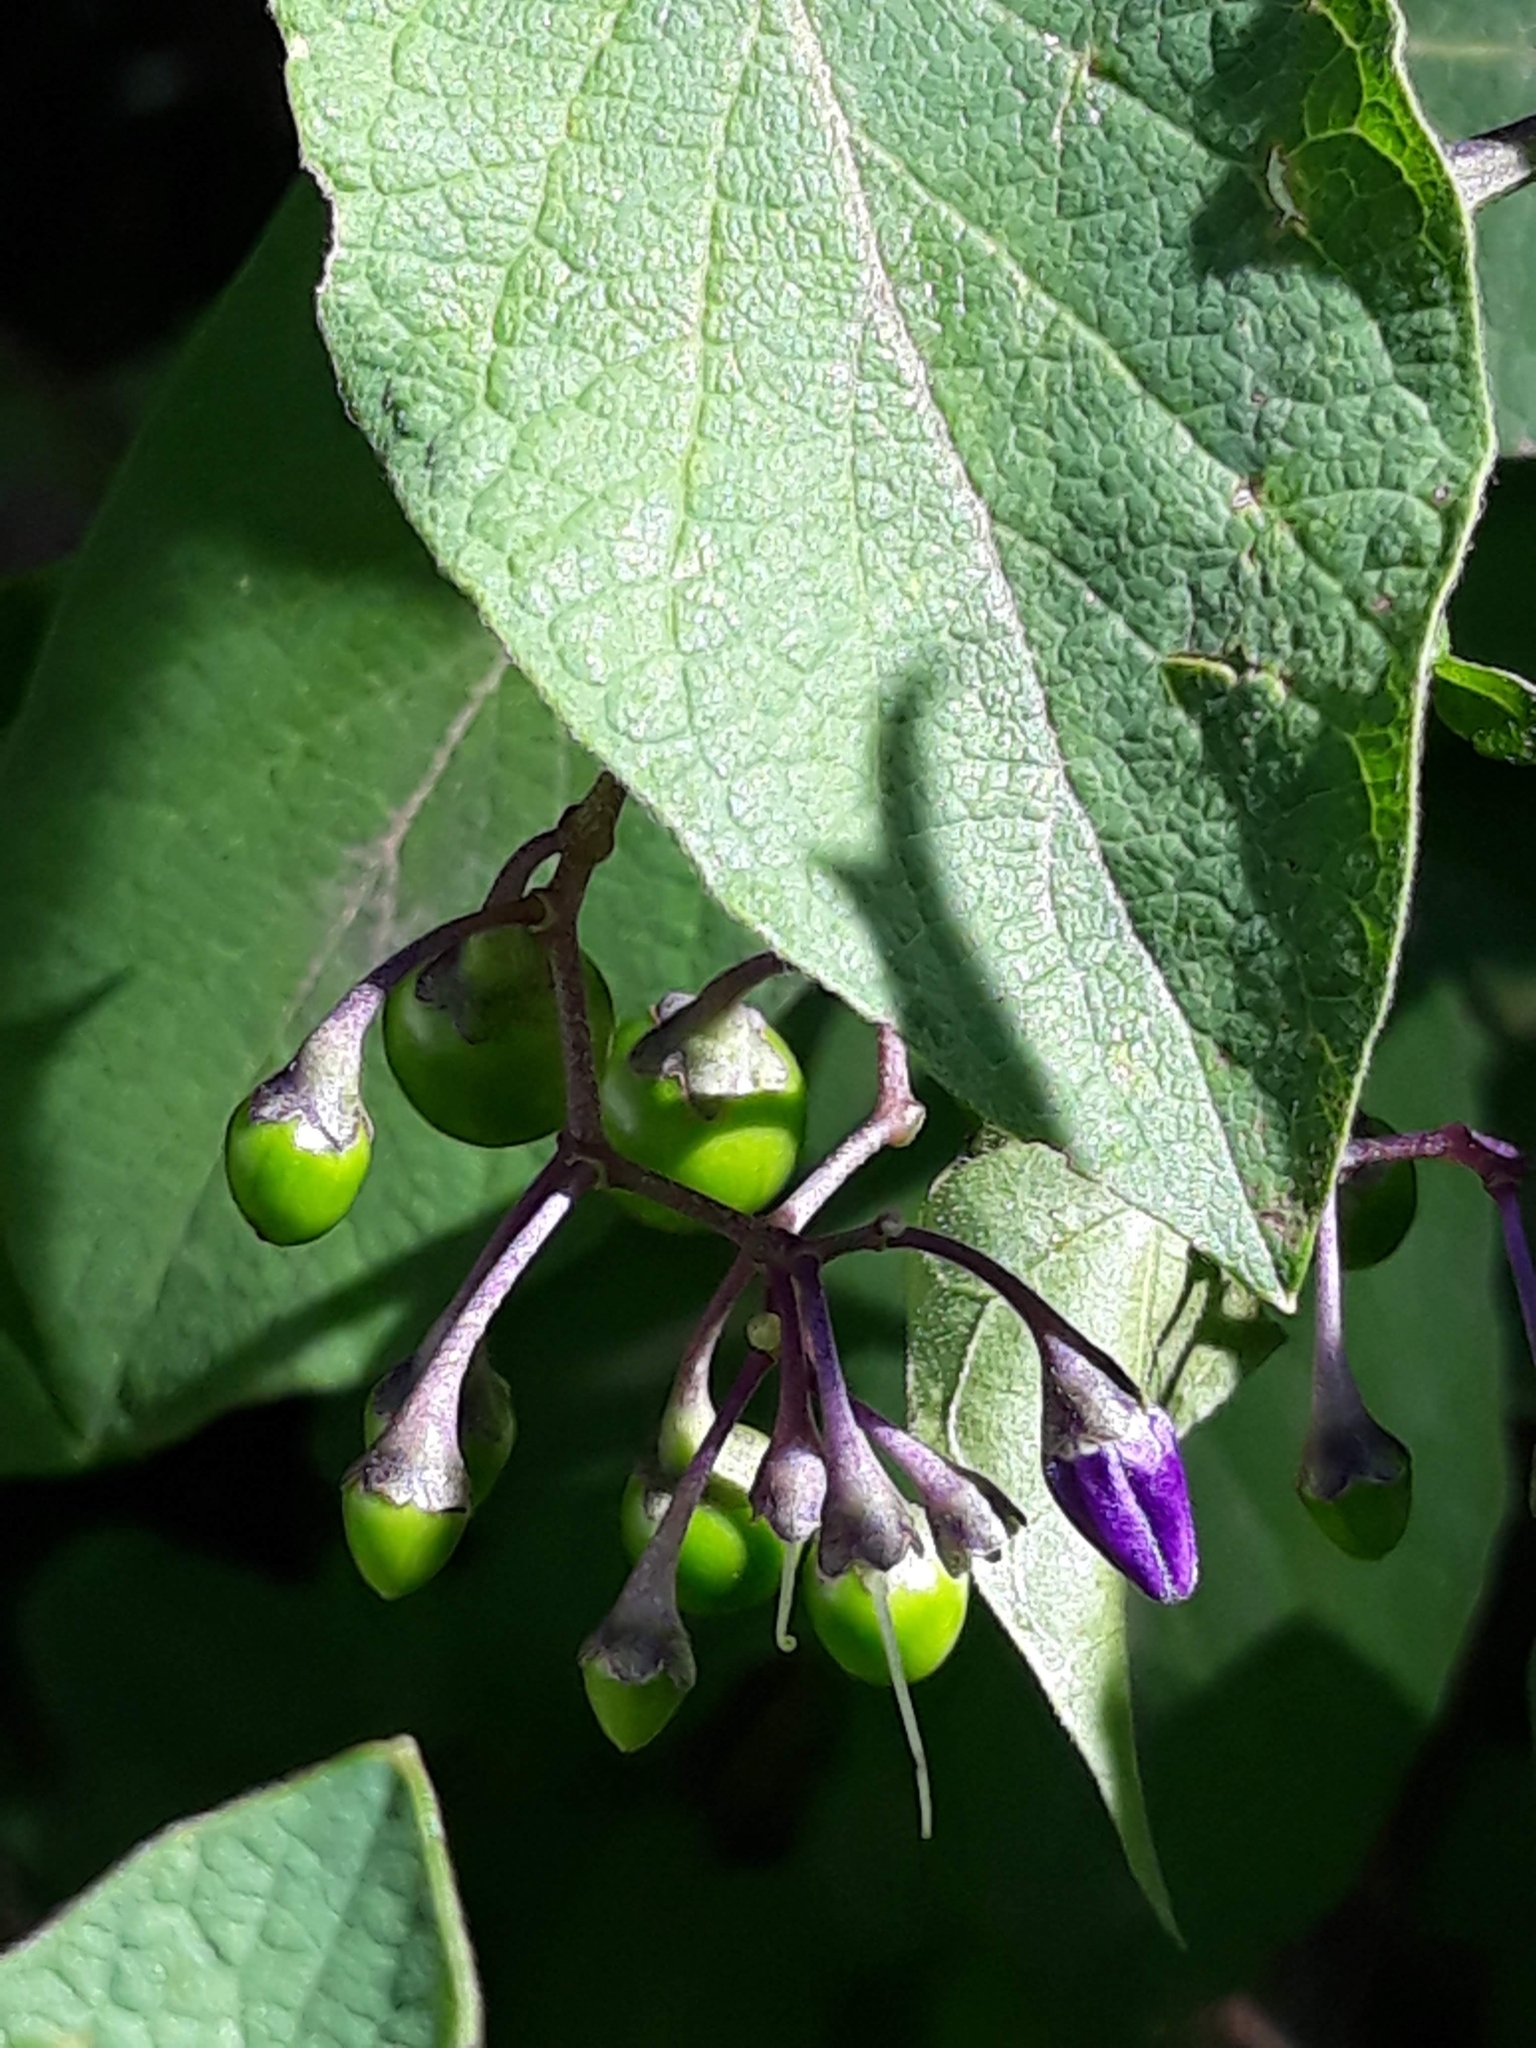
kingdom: Plantae
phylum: Tracheophyta
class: Magnoliopsida
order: Solanales
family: Solanaceae
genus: Solanum
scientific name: Solanum dulcamara
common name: Climbing nightshade
